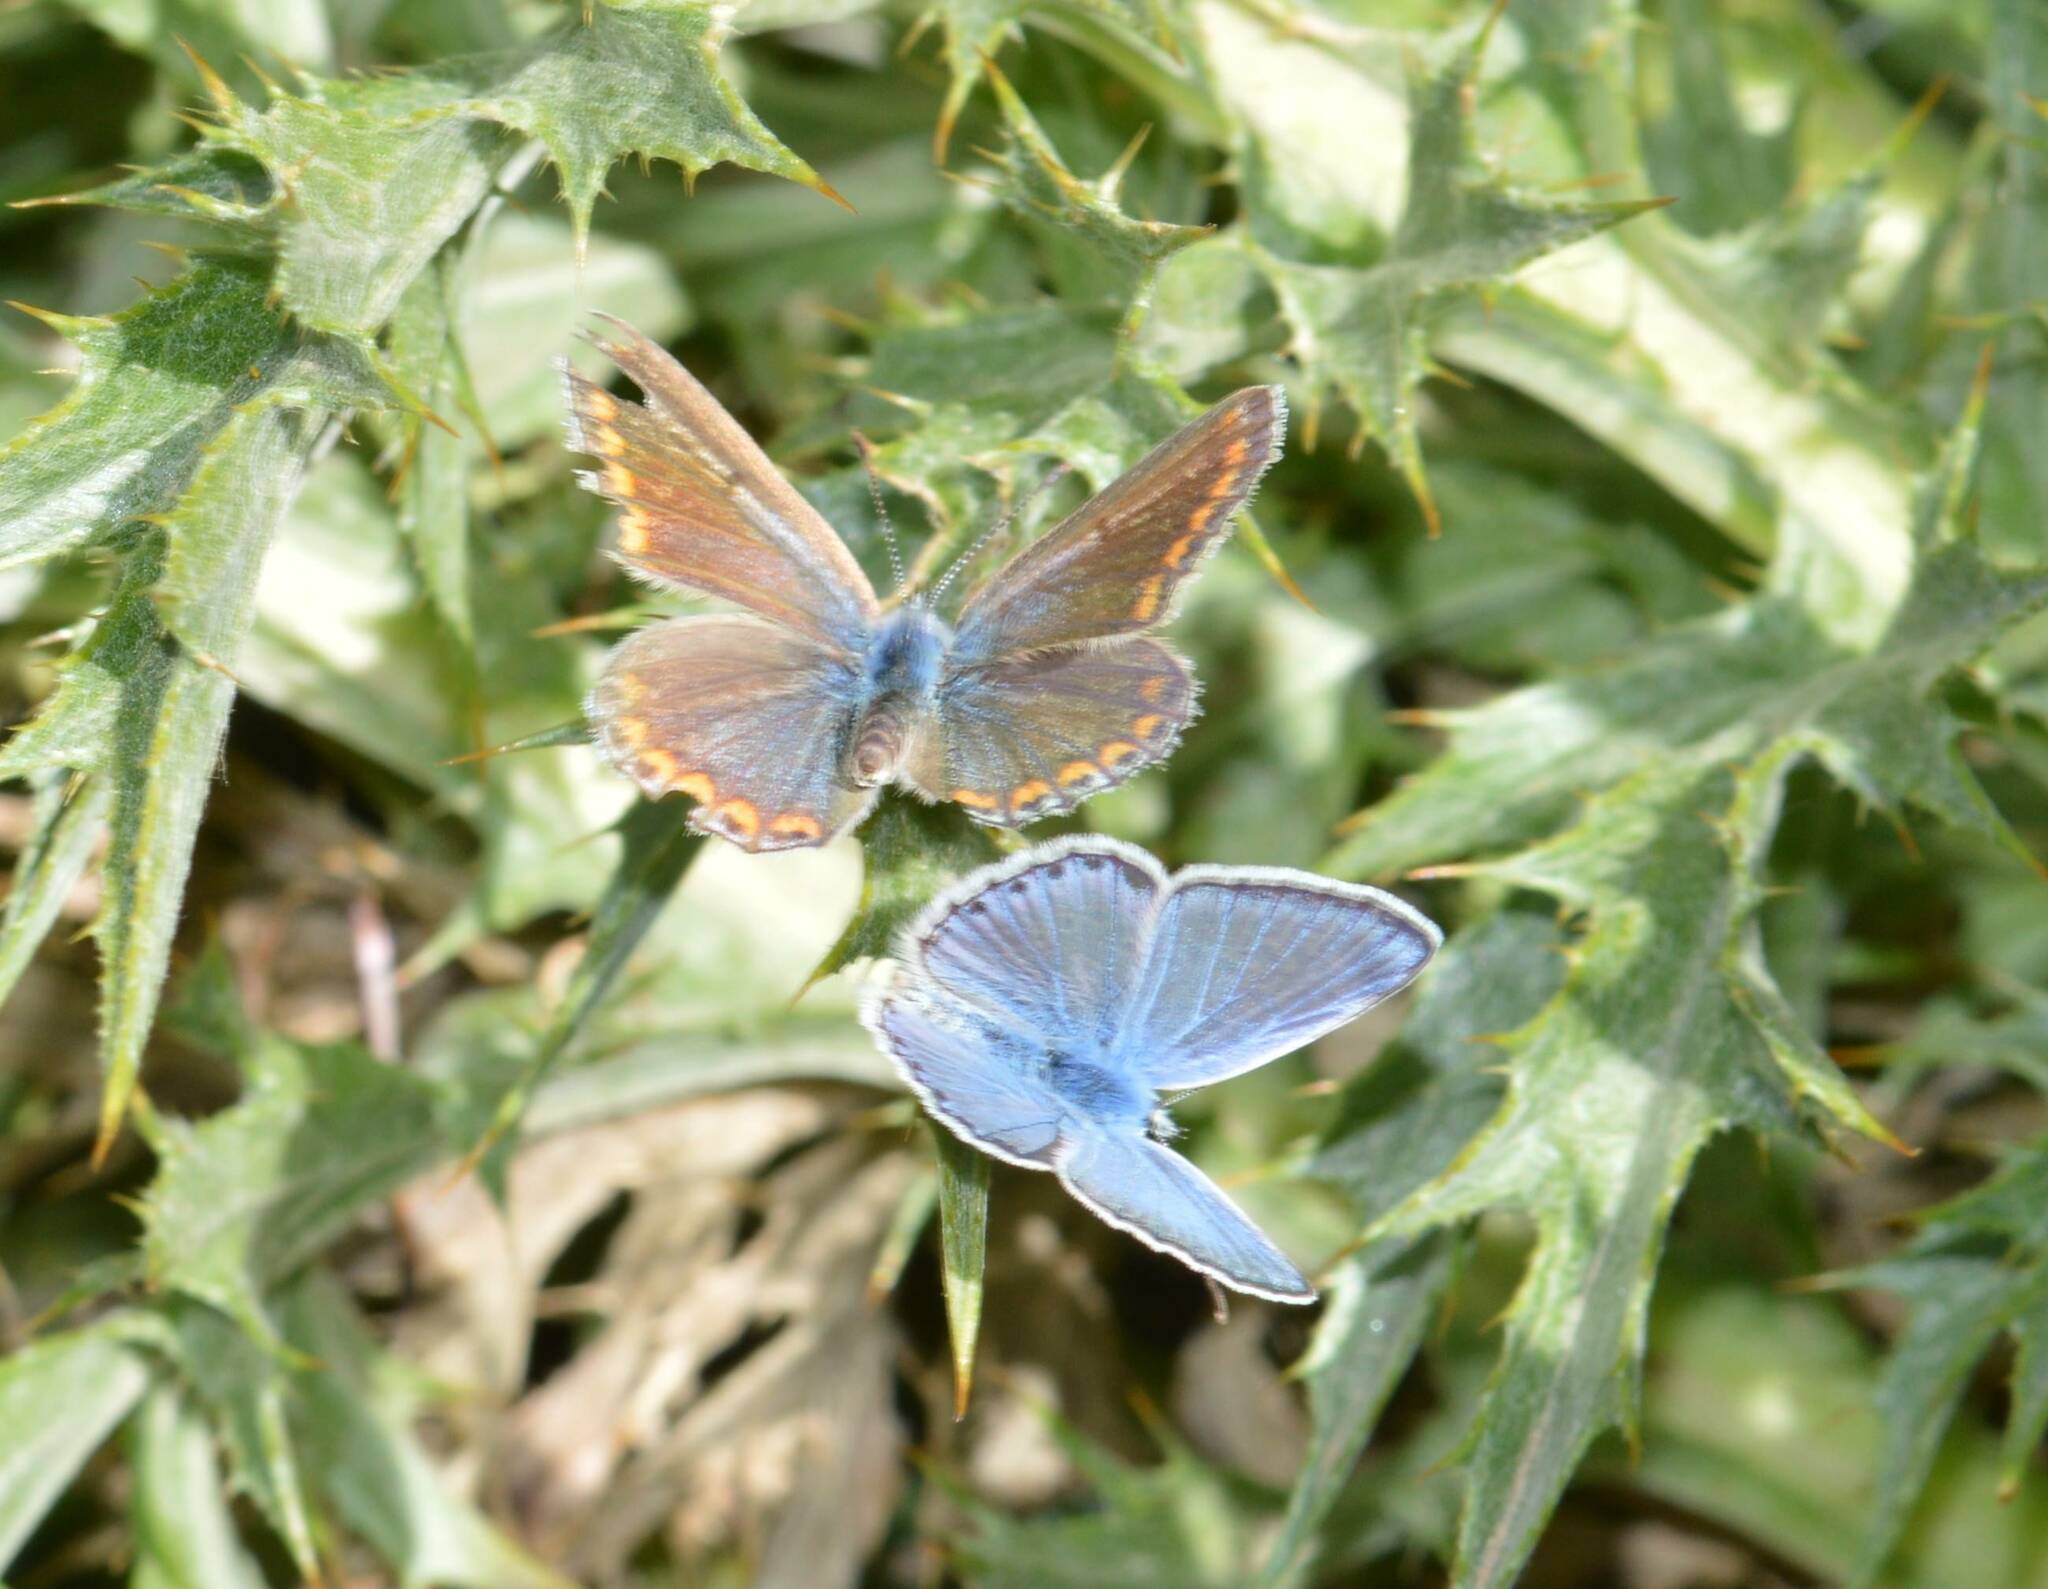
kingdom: Animalia
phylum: Arthropoda
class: Insecta
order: Lepidoptera
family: Lycaenidae
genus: Polyommatus
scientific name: Polyommatus celina
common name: Austaut's blue
